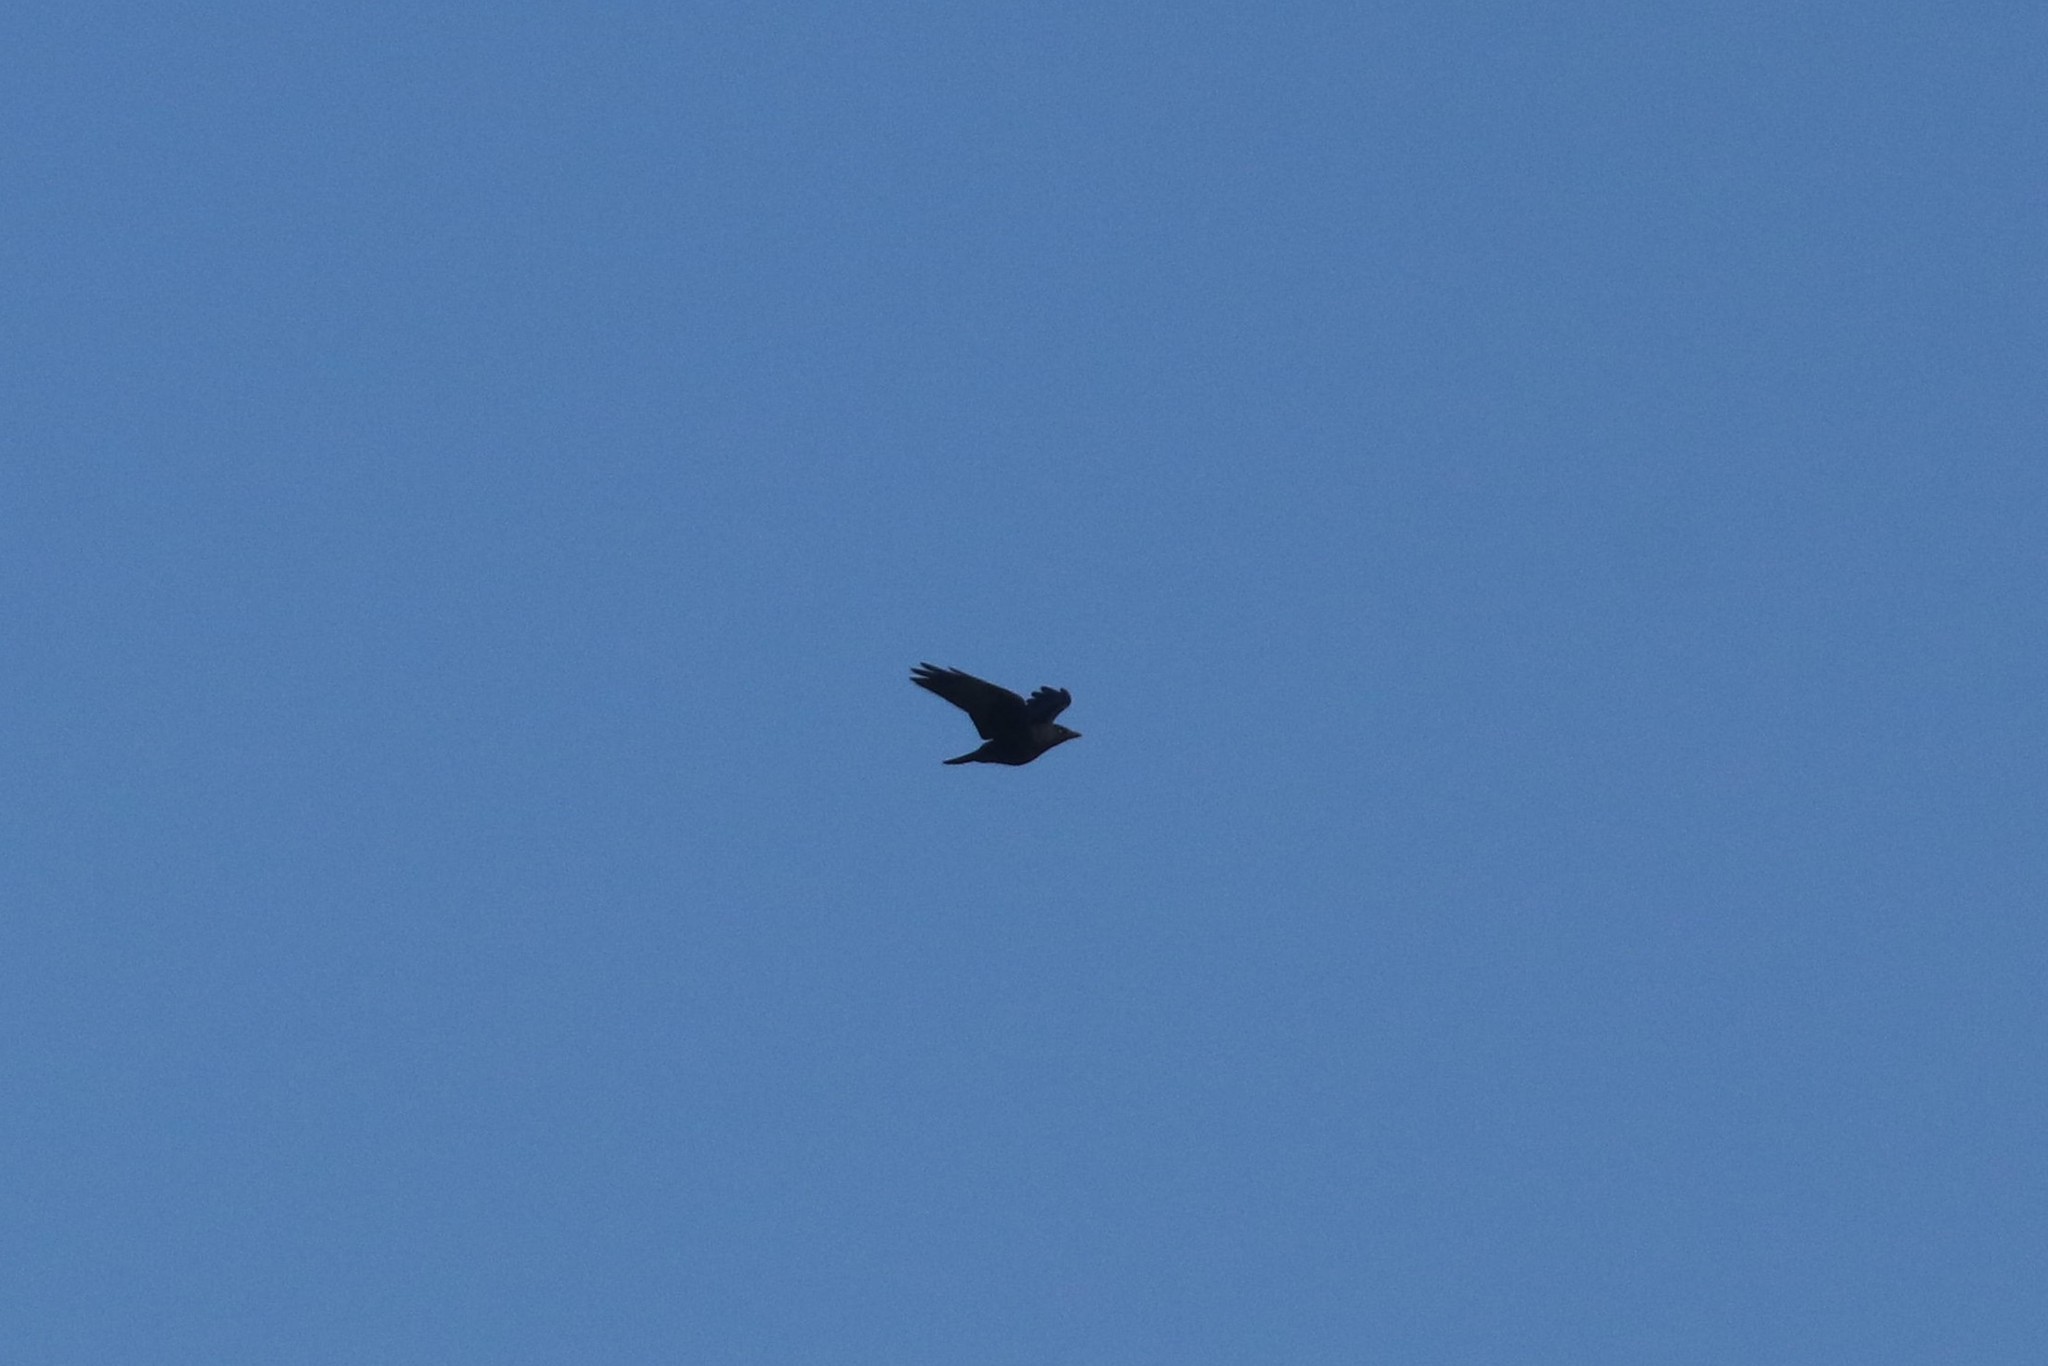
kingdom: Animalia
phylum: Chordata
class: Aves
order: Passeriformes
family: Corvidae
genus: Coloeus
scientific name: Coloeus monedula
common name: Western jackdaw
